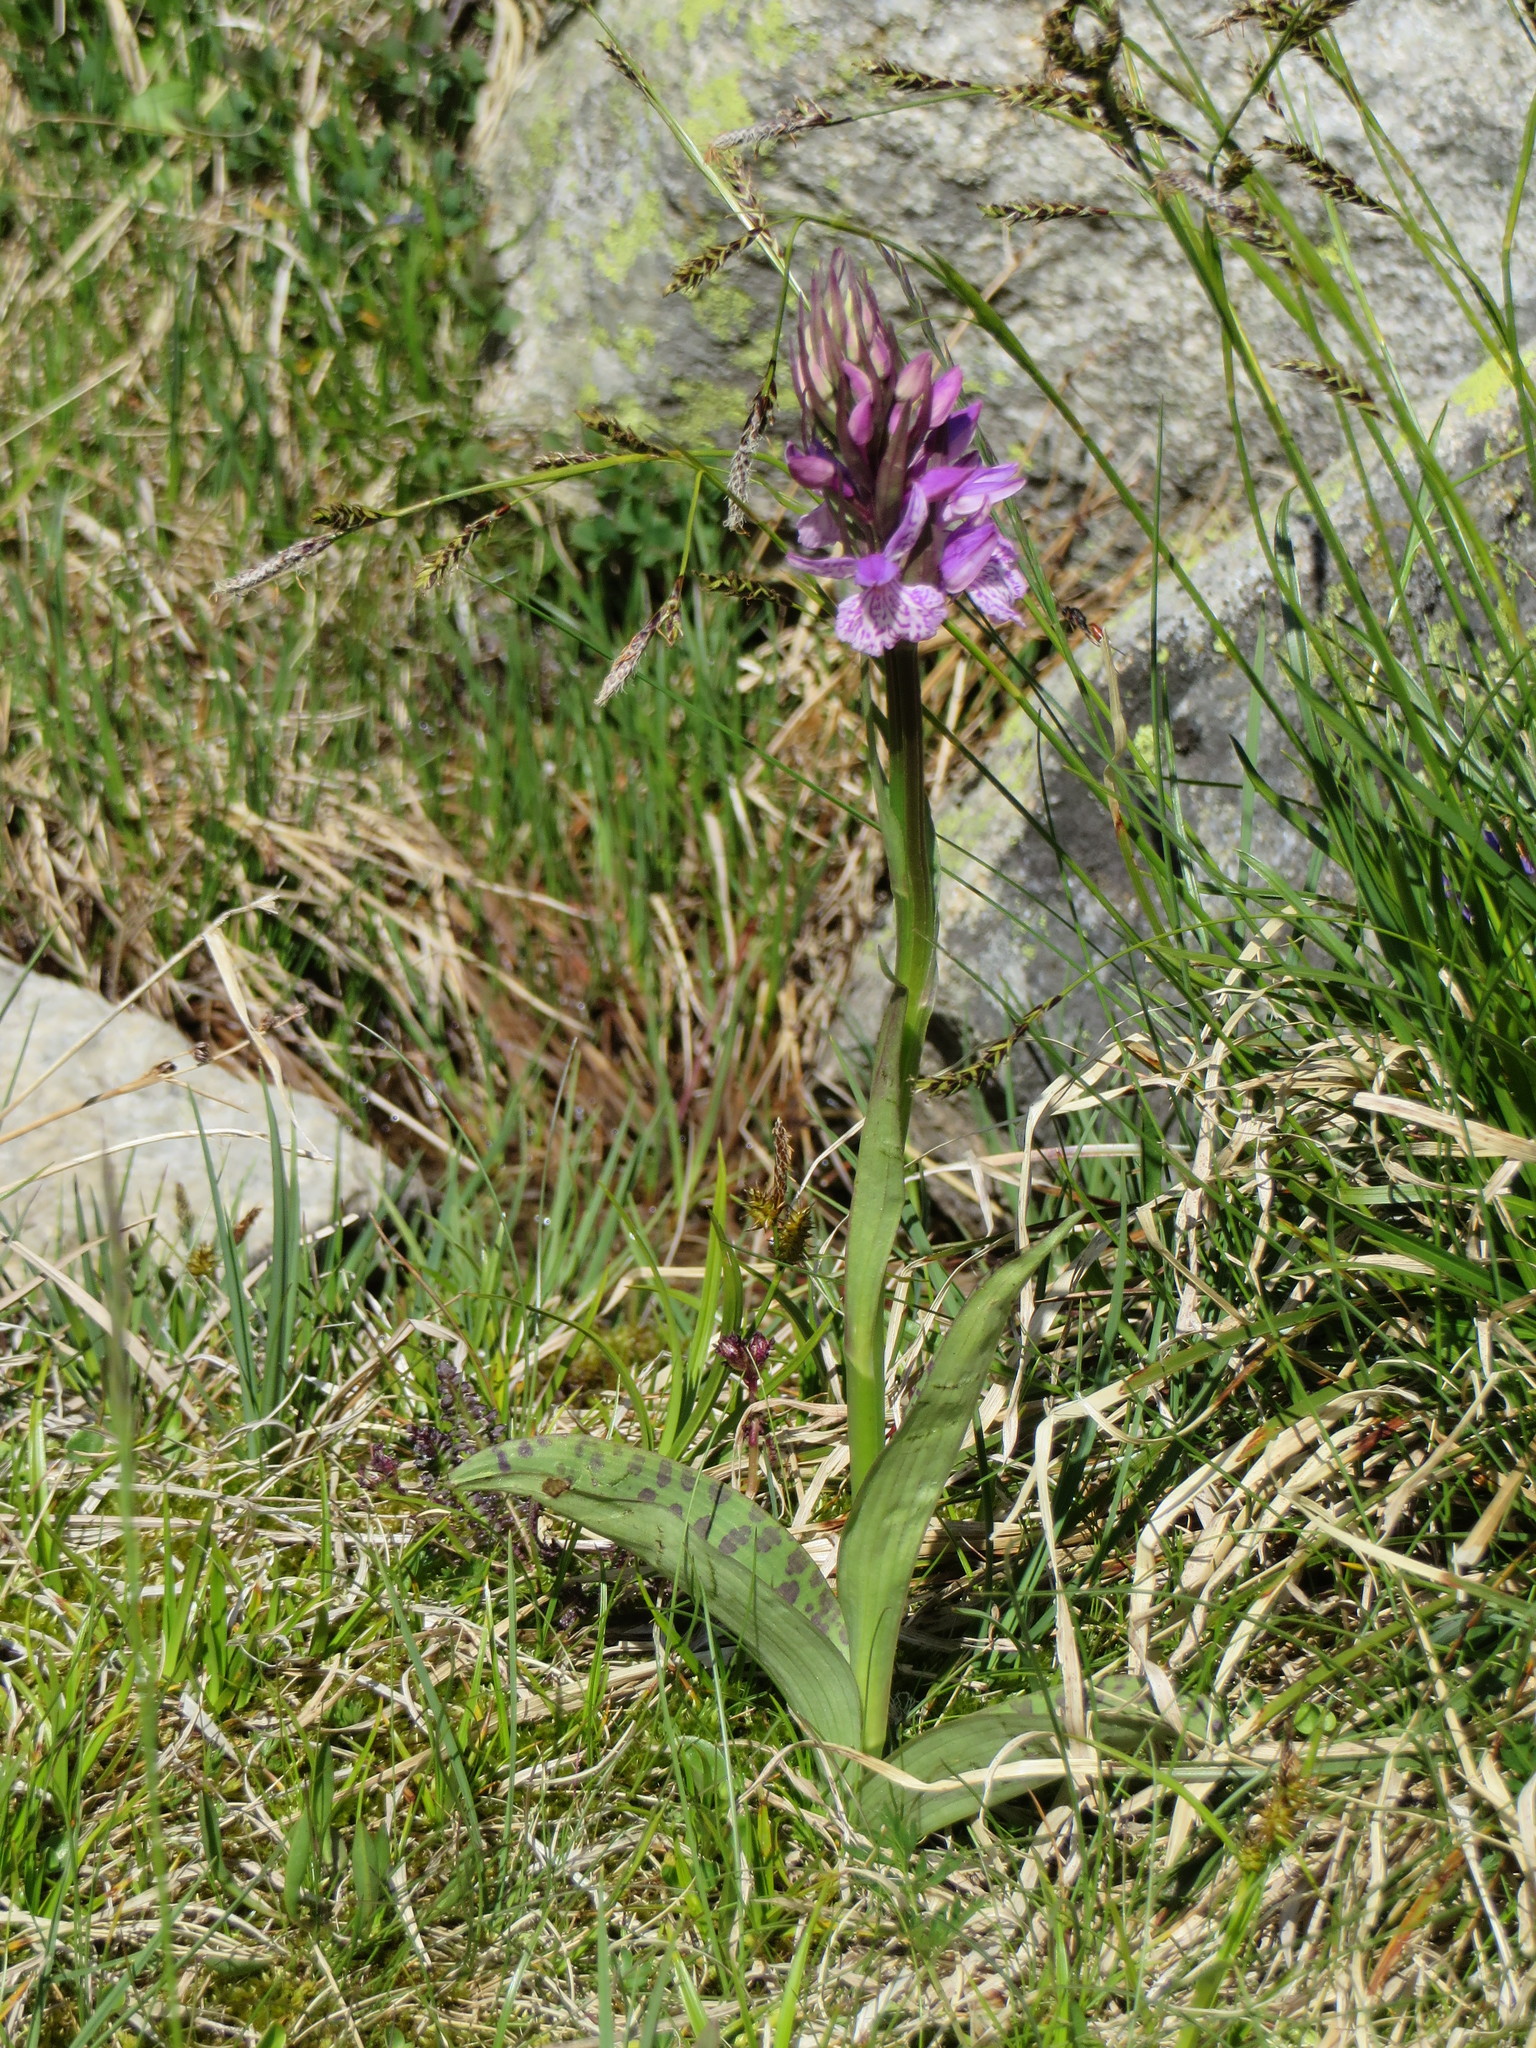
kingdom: Plantae
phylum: Tracheophyta
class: Liliopsida
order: Asparagales
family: Orchidaceae
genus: Dactylorhiza
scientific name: Dactylorhiza maculata
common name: Heath spotted-orchid
